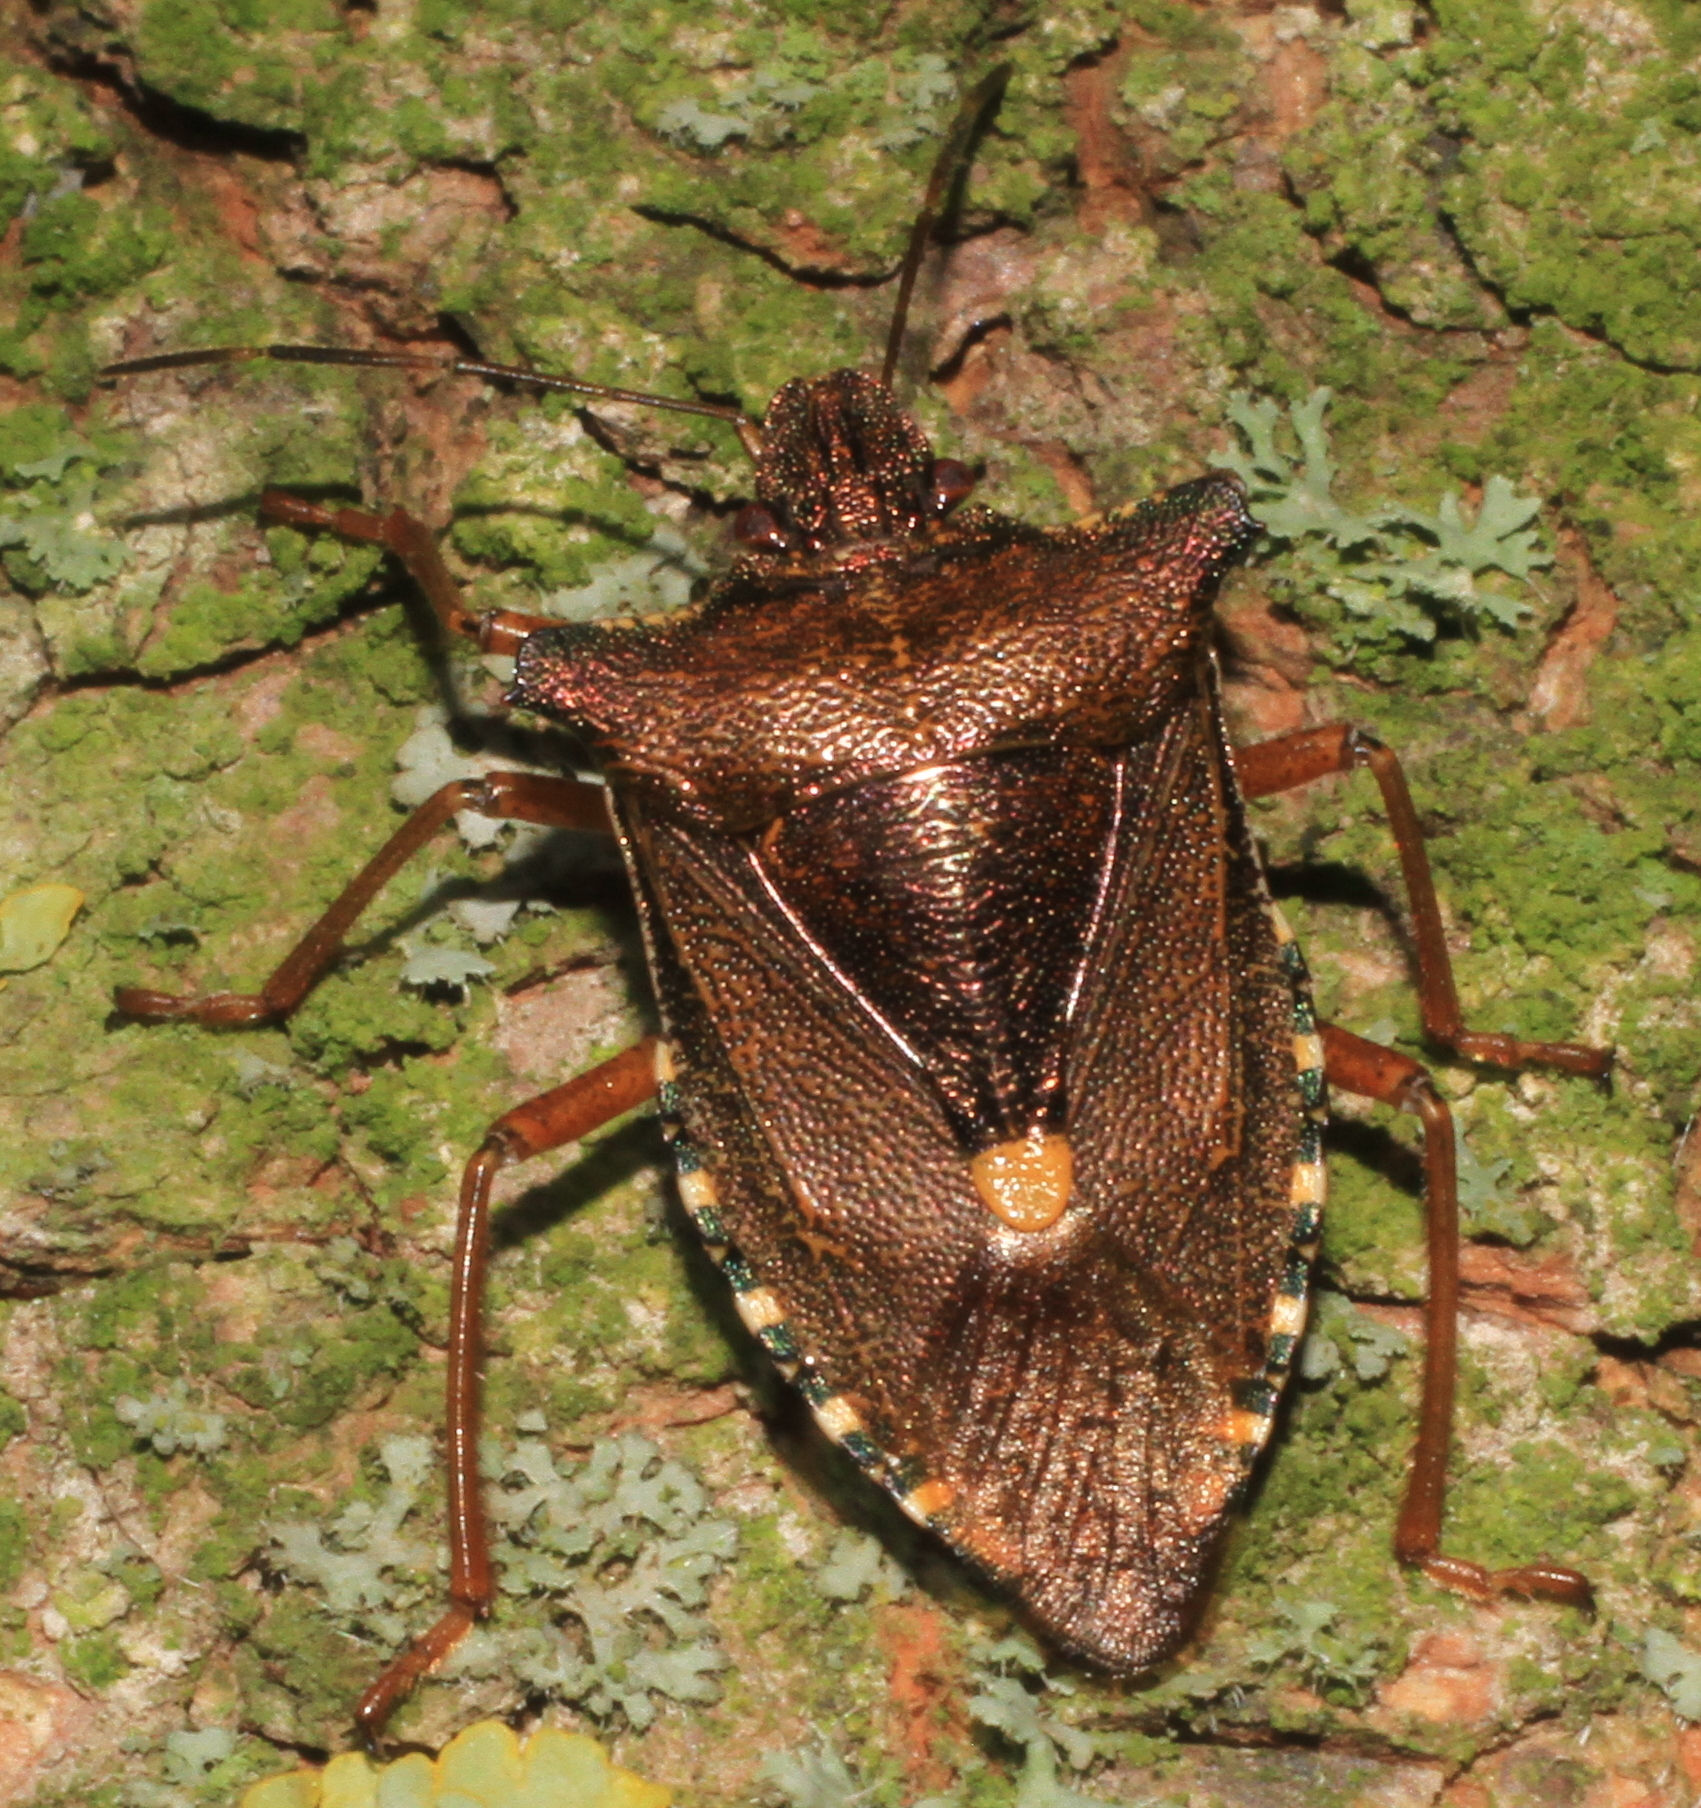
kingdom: Animalia
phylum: Arthropoda
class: Insecta
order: Hemiptera
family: Pentatomidae
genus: Pentatoma
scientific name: Pentatoma rufipes
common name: Forest bug
